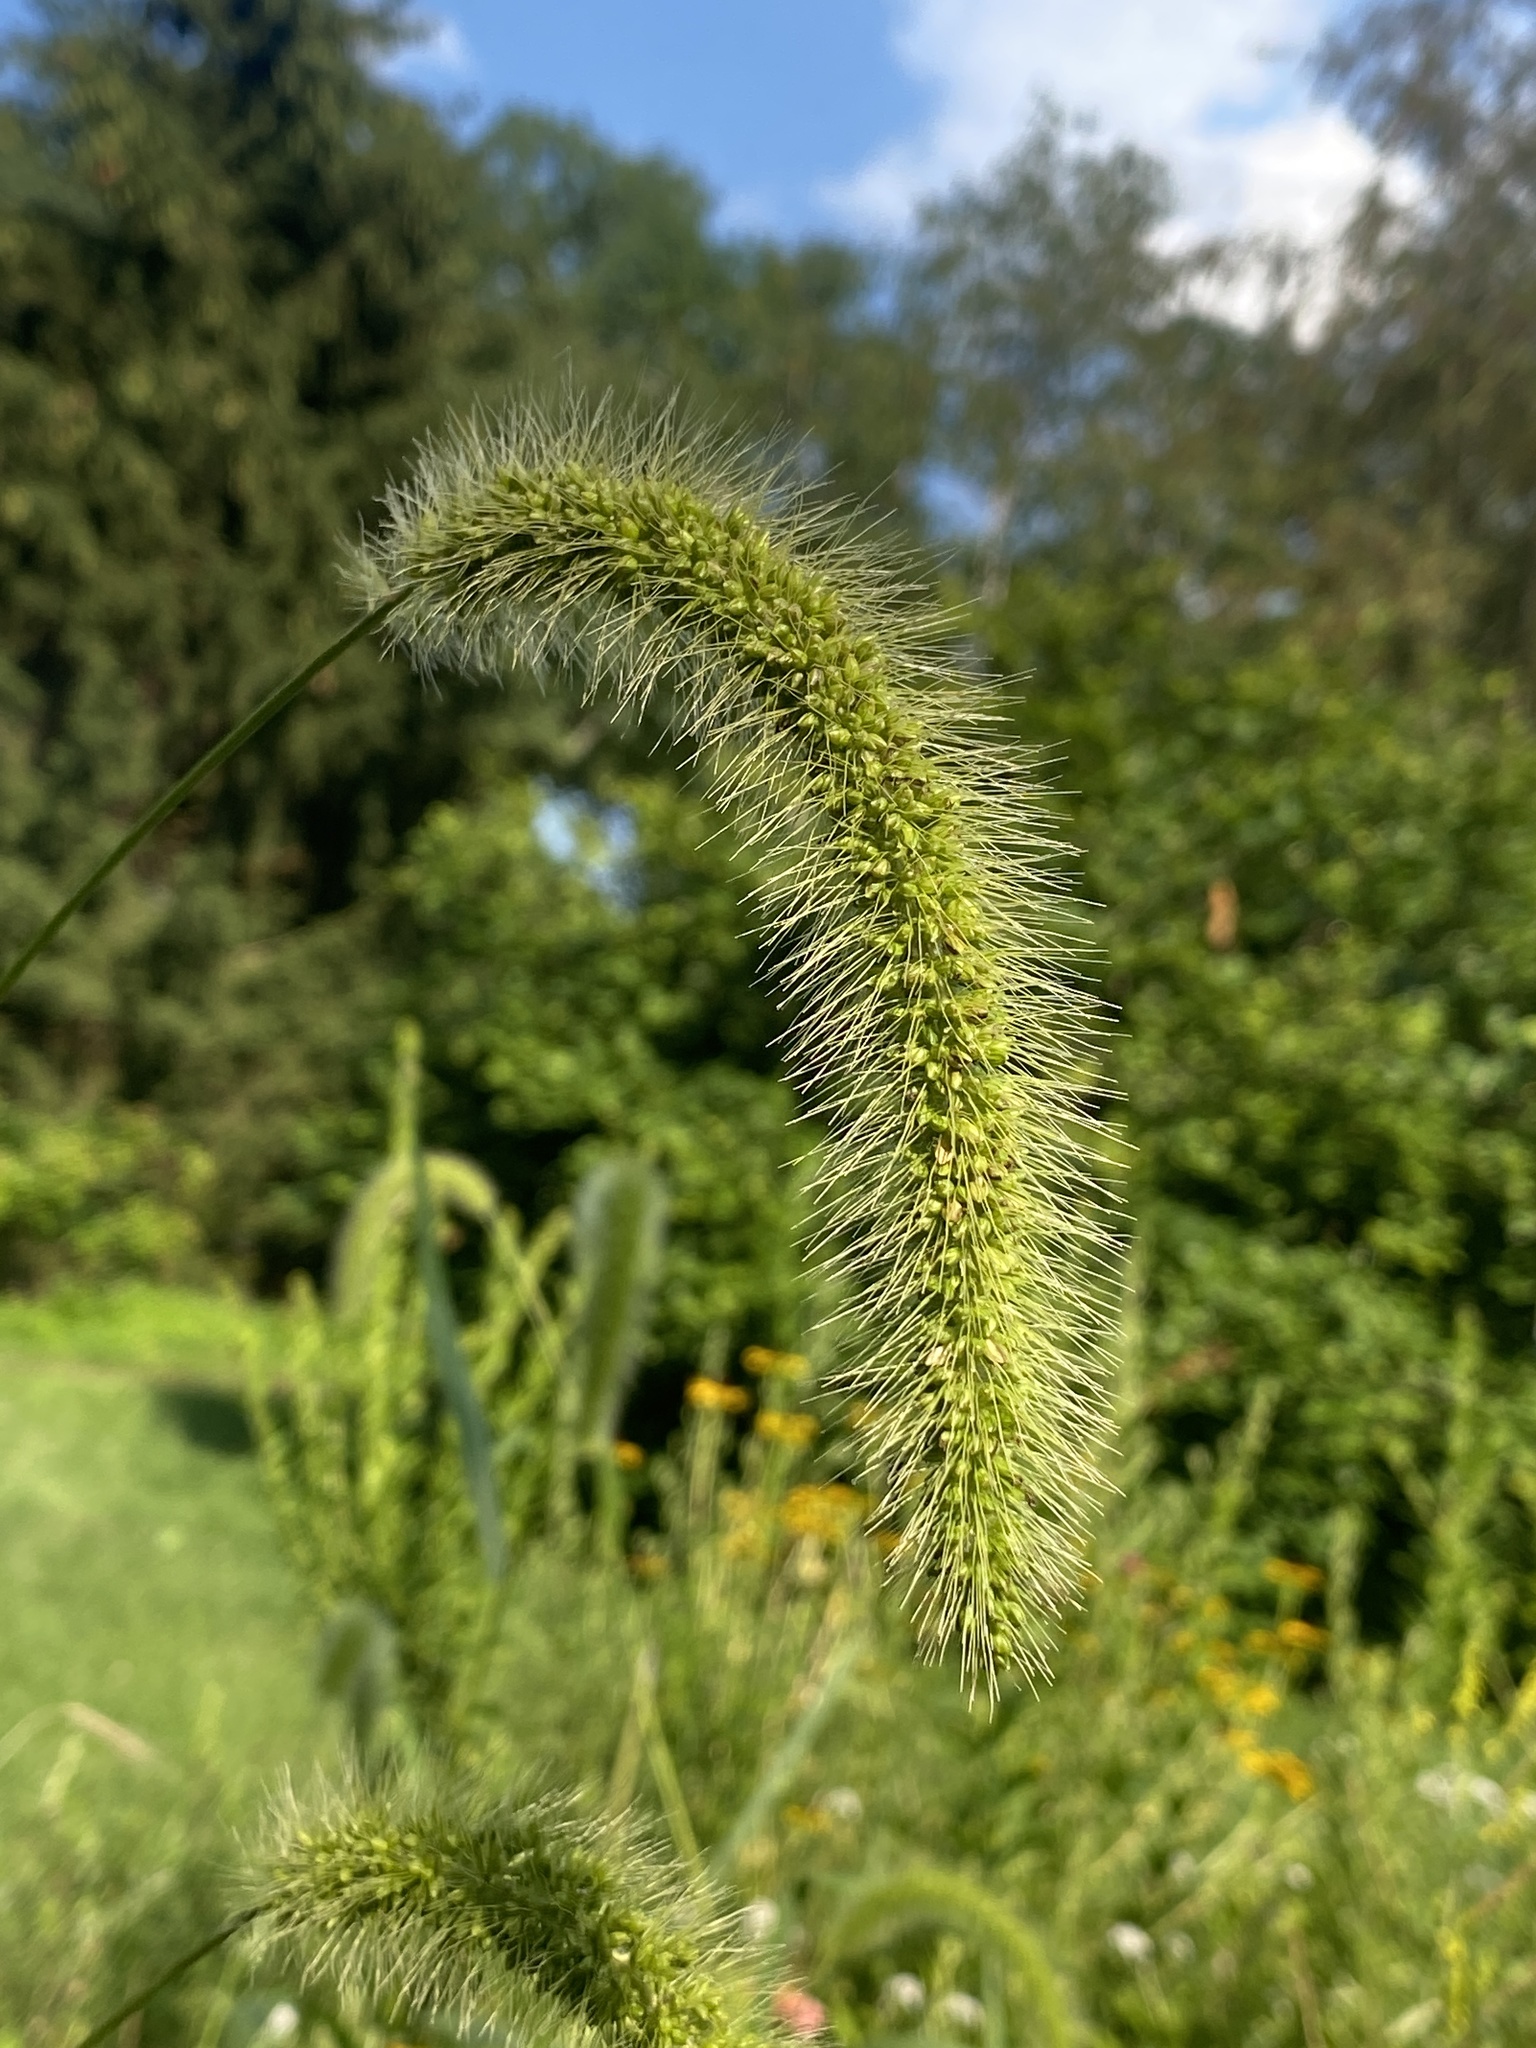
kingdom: Plantae
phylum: Tracheophyta
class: Liliopsida
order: Poales
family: Poaceae
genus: Setaria
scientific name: Setaria faberi
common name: Nodding bristle-grass
